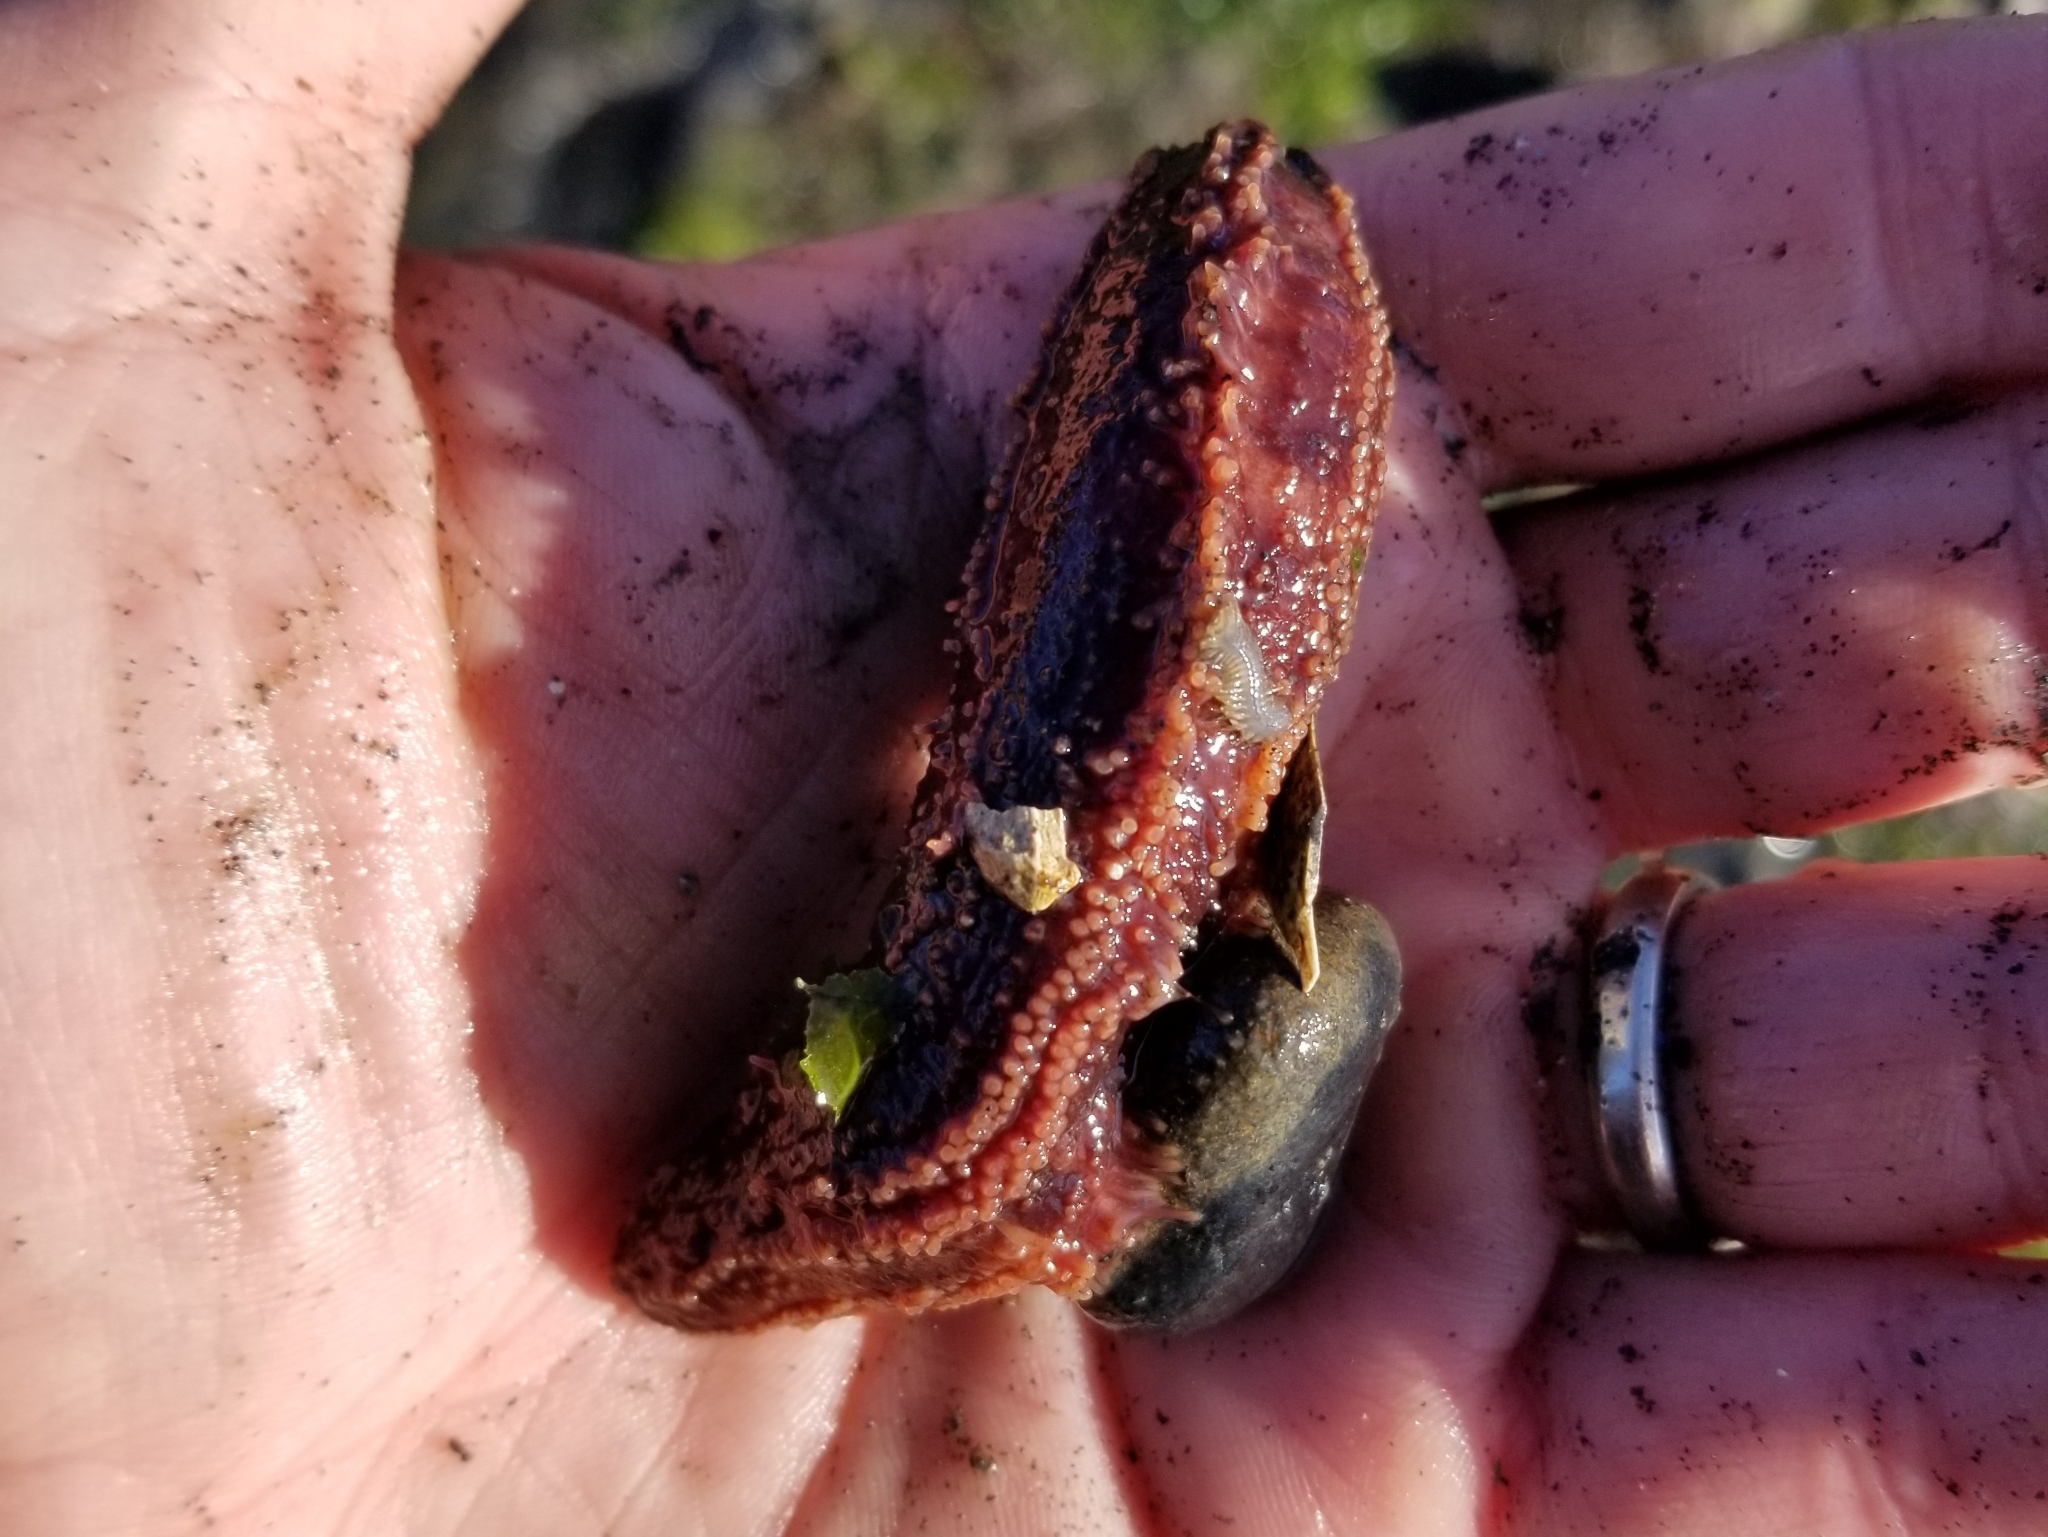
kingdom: Animalia
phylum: Echinodermata
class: Holothuroidea
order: Dendrochirotida
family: Cucumariidae
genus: Cucumaria
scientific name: Cucumaria miniata
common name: Orange sea cucumber
